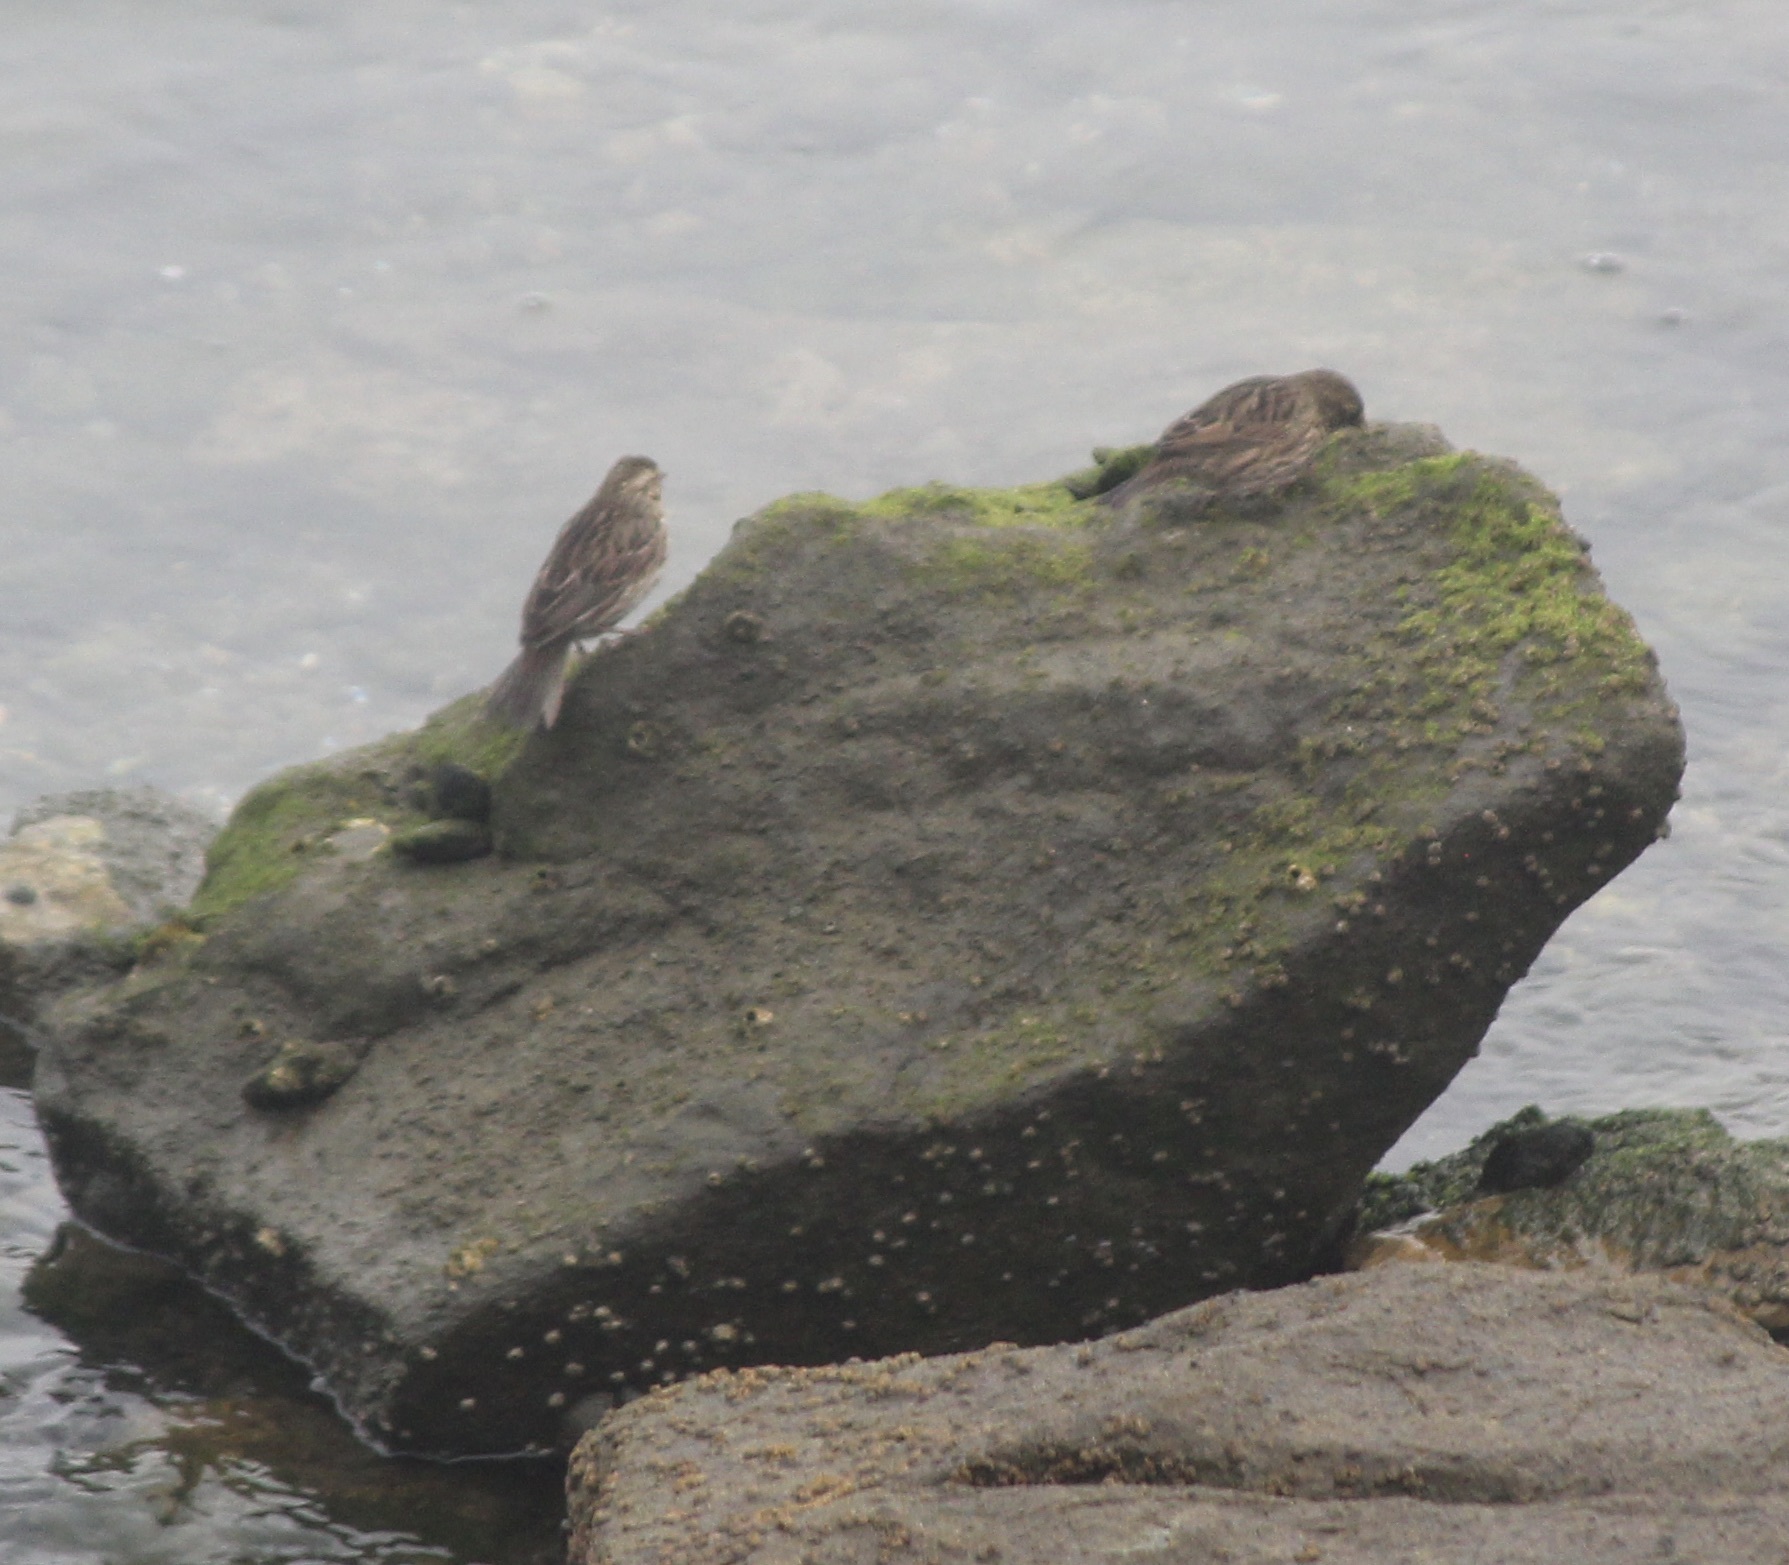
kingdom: Animalia
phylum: Chordata
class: Aves
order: Passeriformes
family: Passerellidae
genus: Passerculus
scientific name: Passerculus sandwichensis
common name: Savannah sparrow
